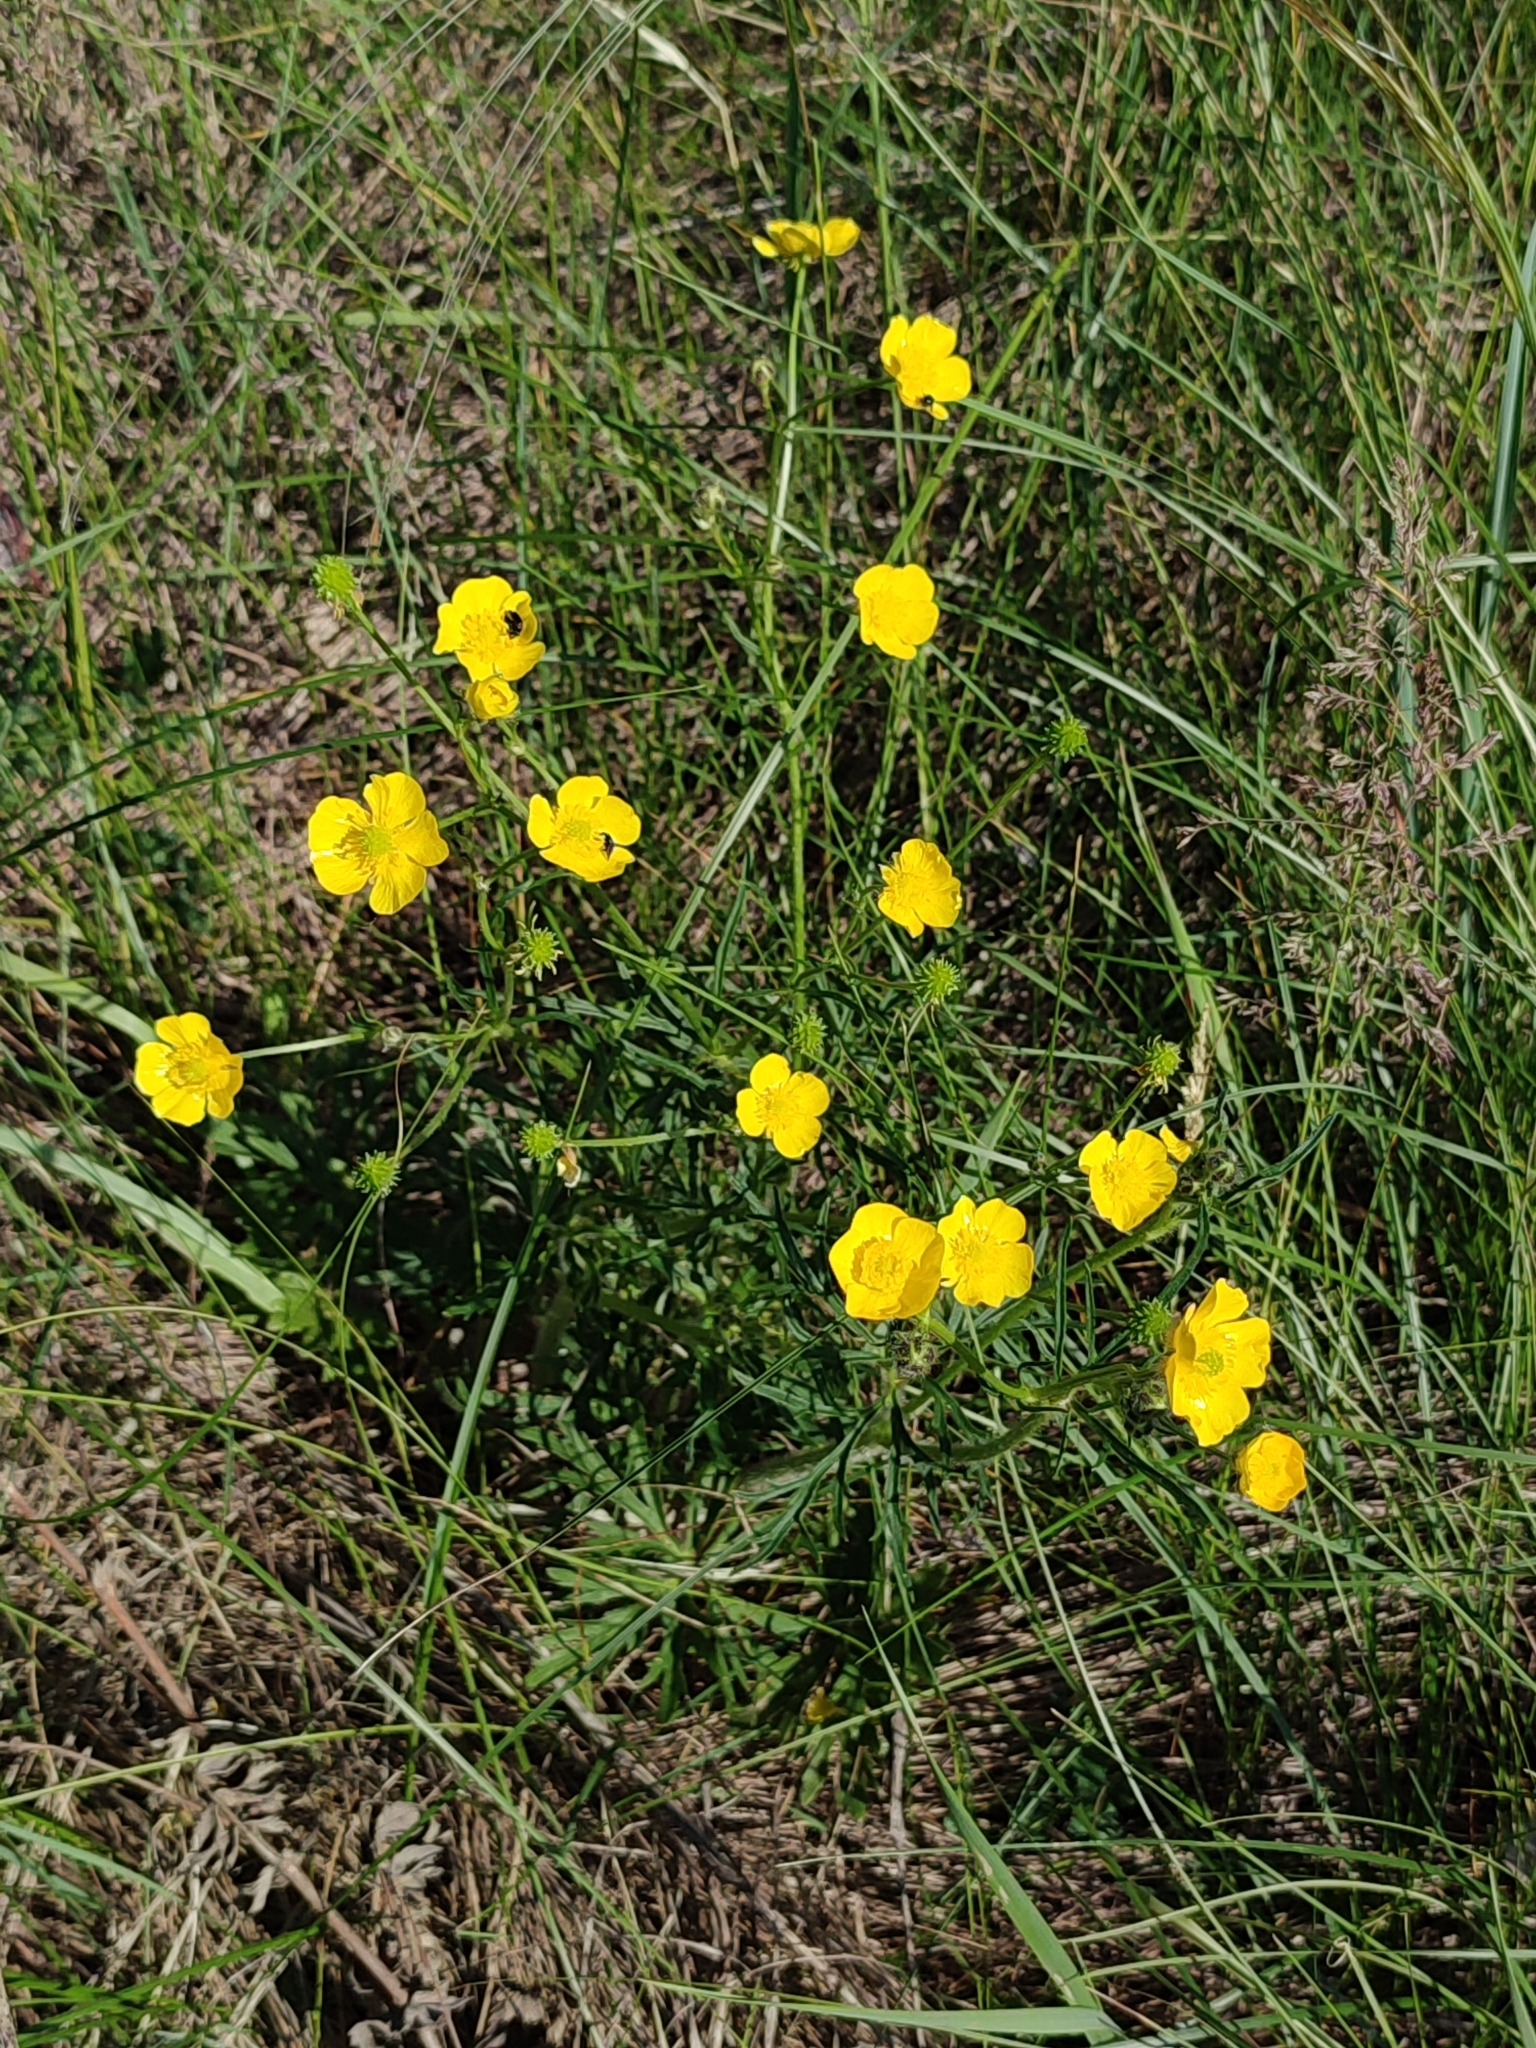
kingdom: Plantae
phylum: Tracheophyta
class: Magnoliopsida
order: Ranunculales
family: Ranunculaceae
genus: Ranunculus
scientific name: Ranunculus polyanthemos
